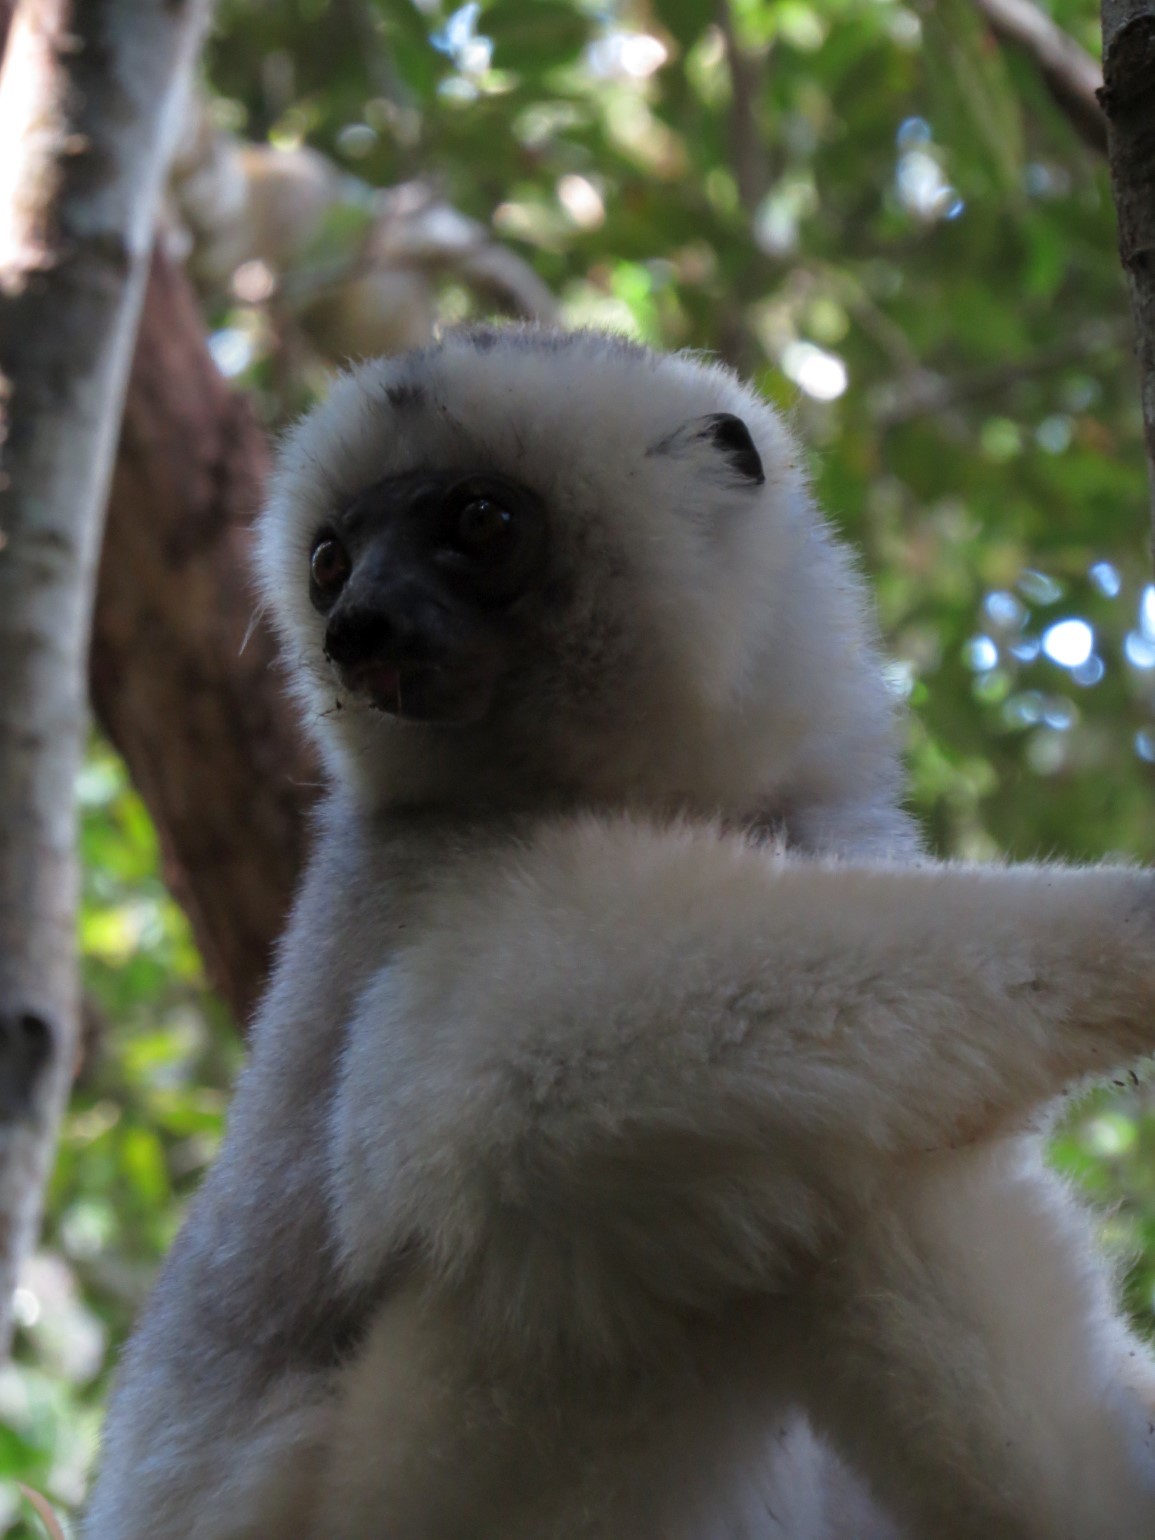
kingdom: Animalia
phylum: Chordata
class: Mammalia
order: Primates
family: Indriidae
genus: Propithecus
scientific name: Propithecus candidus
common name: Silky sifaka
